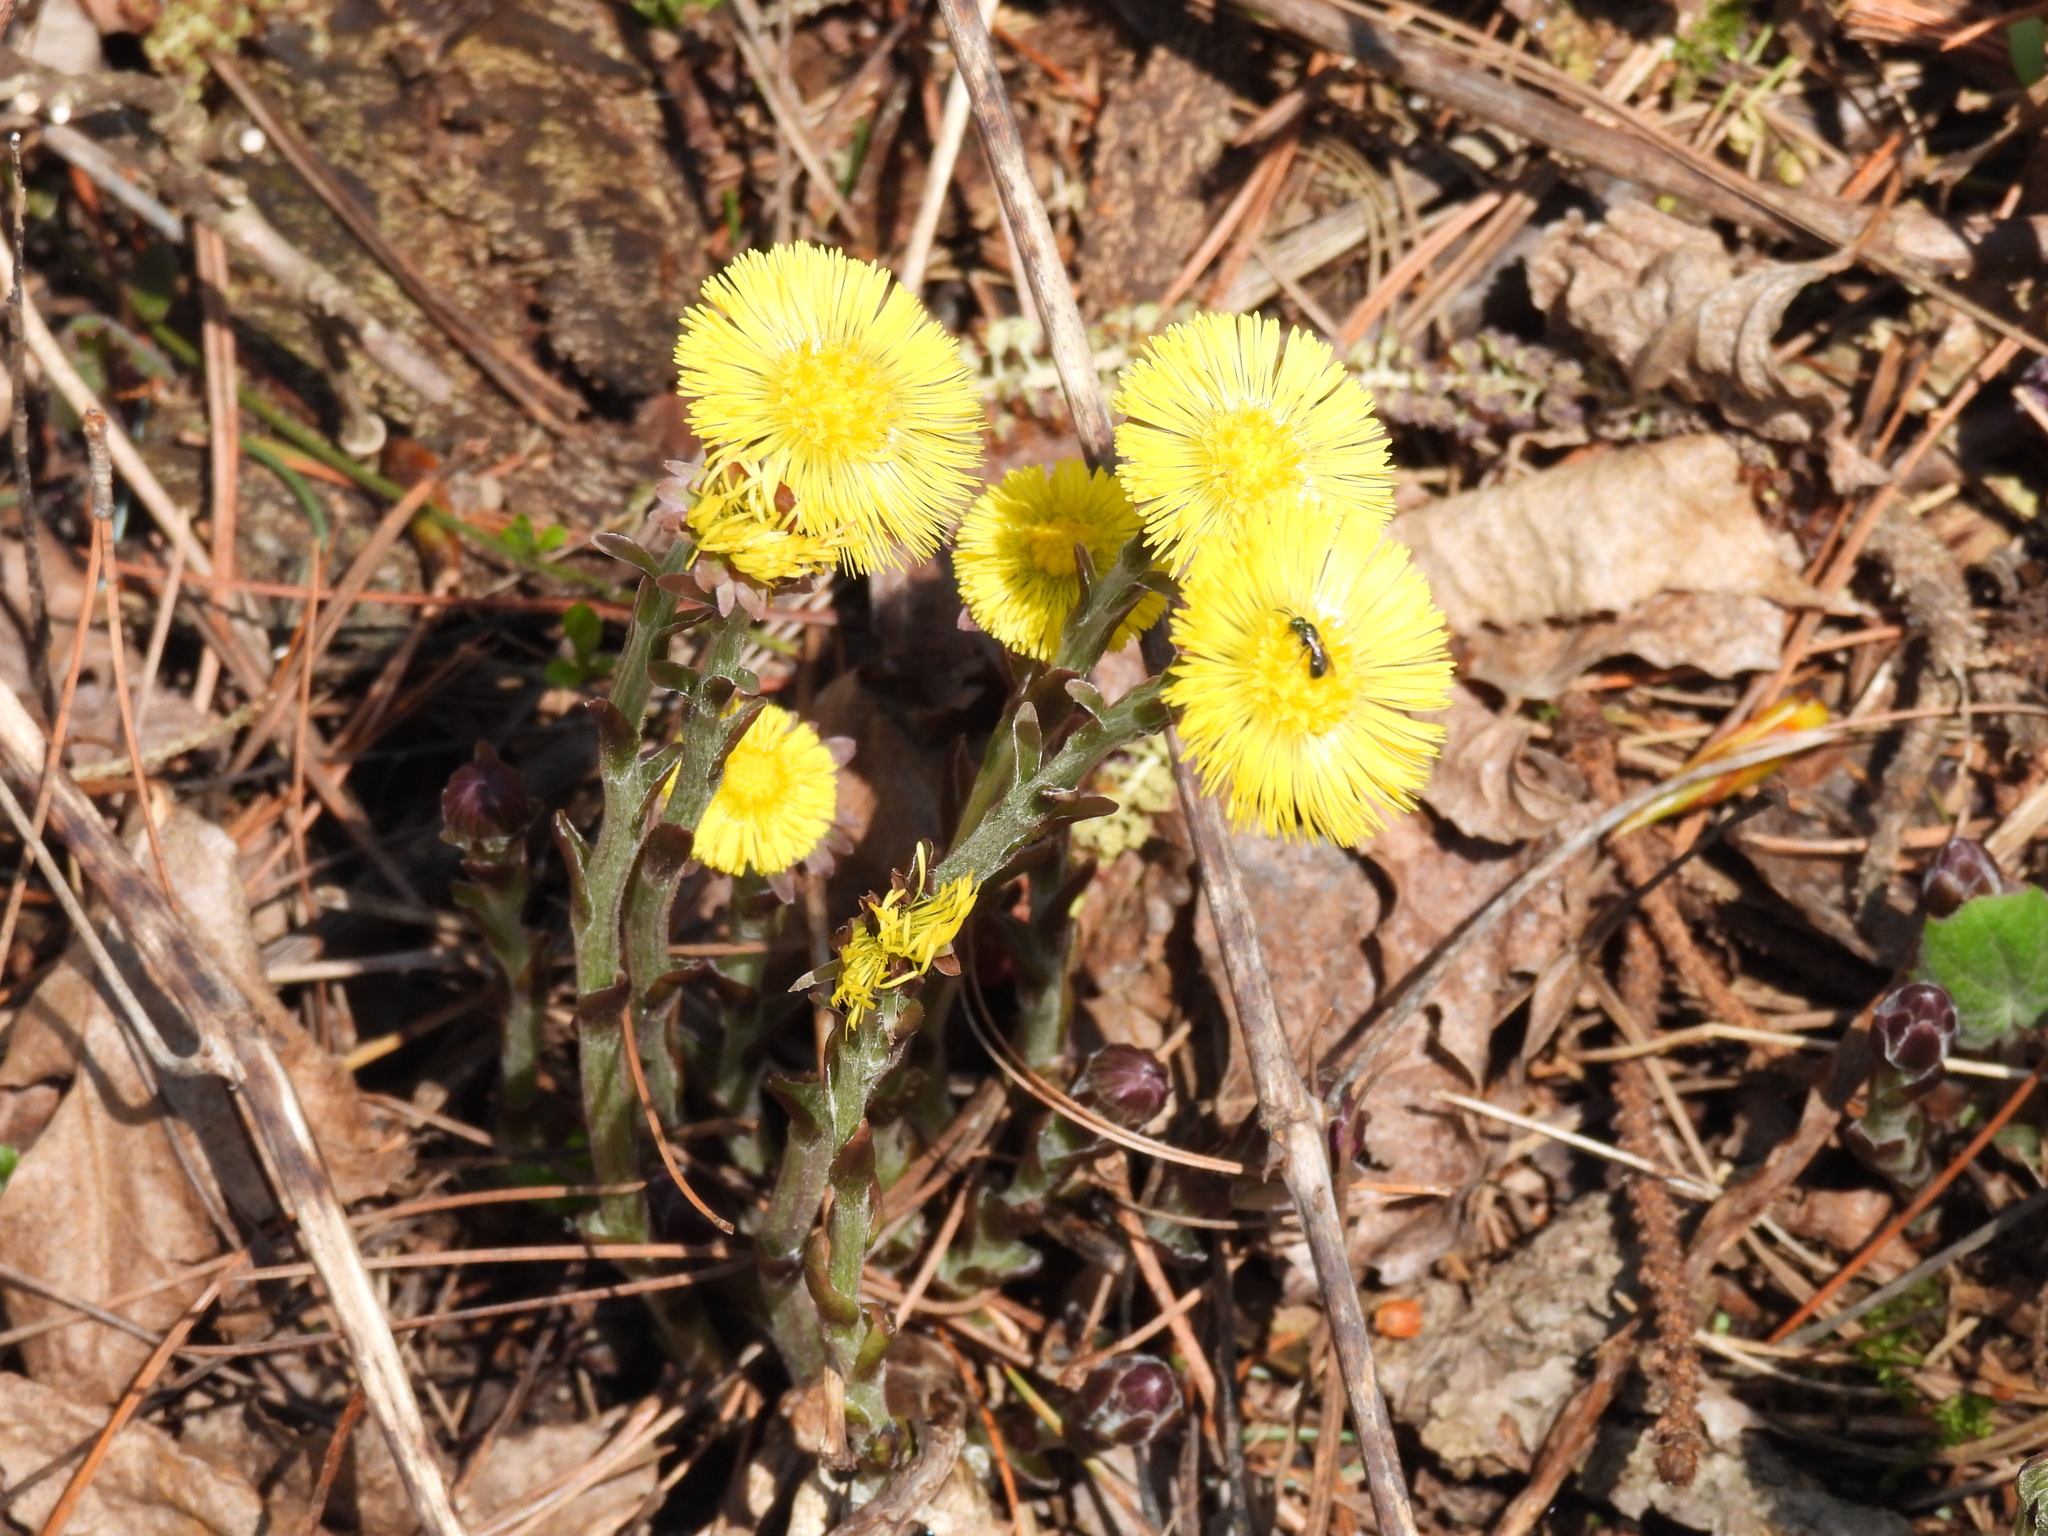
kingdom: Plantae
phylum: Tracheophyta
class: Magnoliopsida
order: Asterales
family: Asteraceae
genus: Tussilago
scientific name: Tussilago farfara
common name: Coltsfoot
